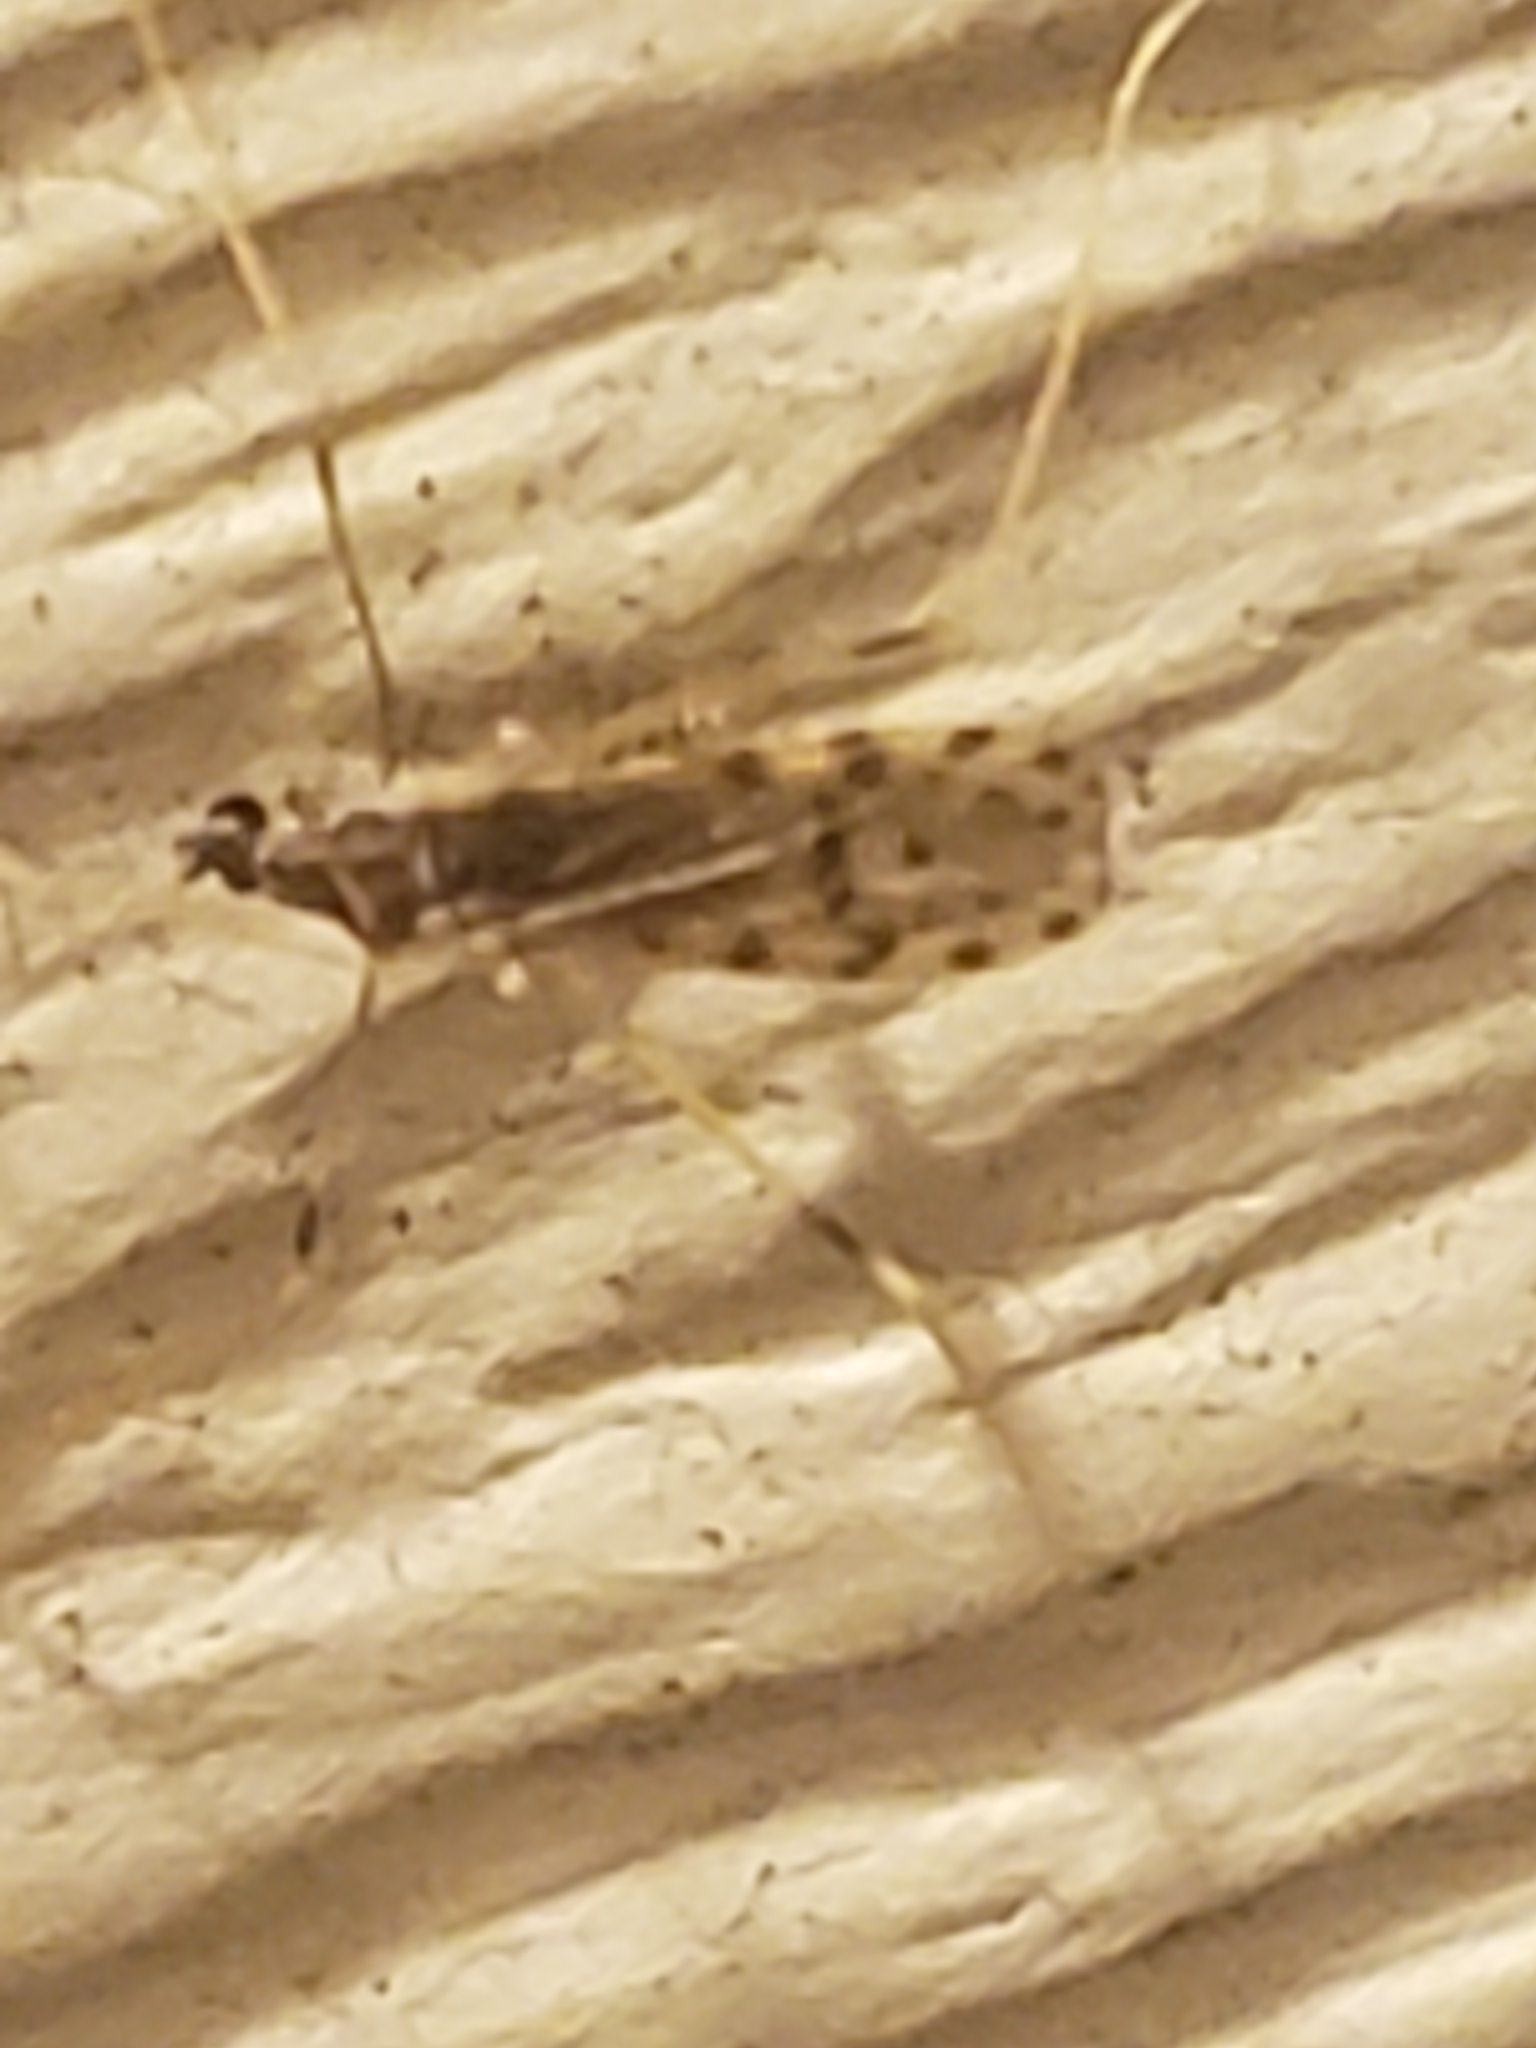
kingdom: Animalia
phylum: Arthropoda
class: Insecta
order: Diptera
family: Limoniidae
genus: Erioptera
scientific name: Erioptera parva
